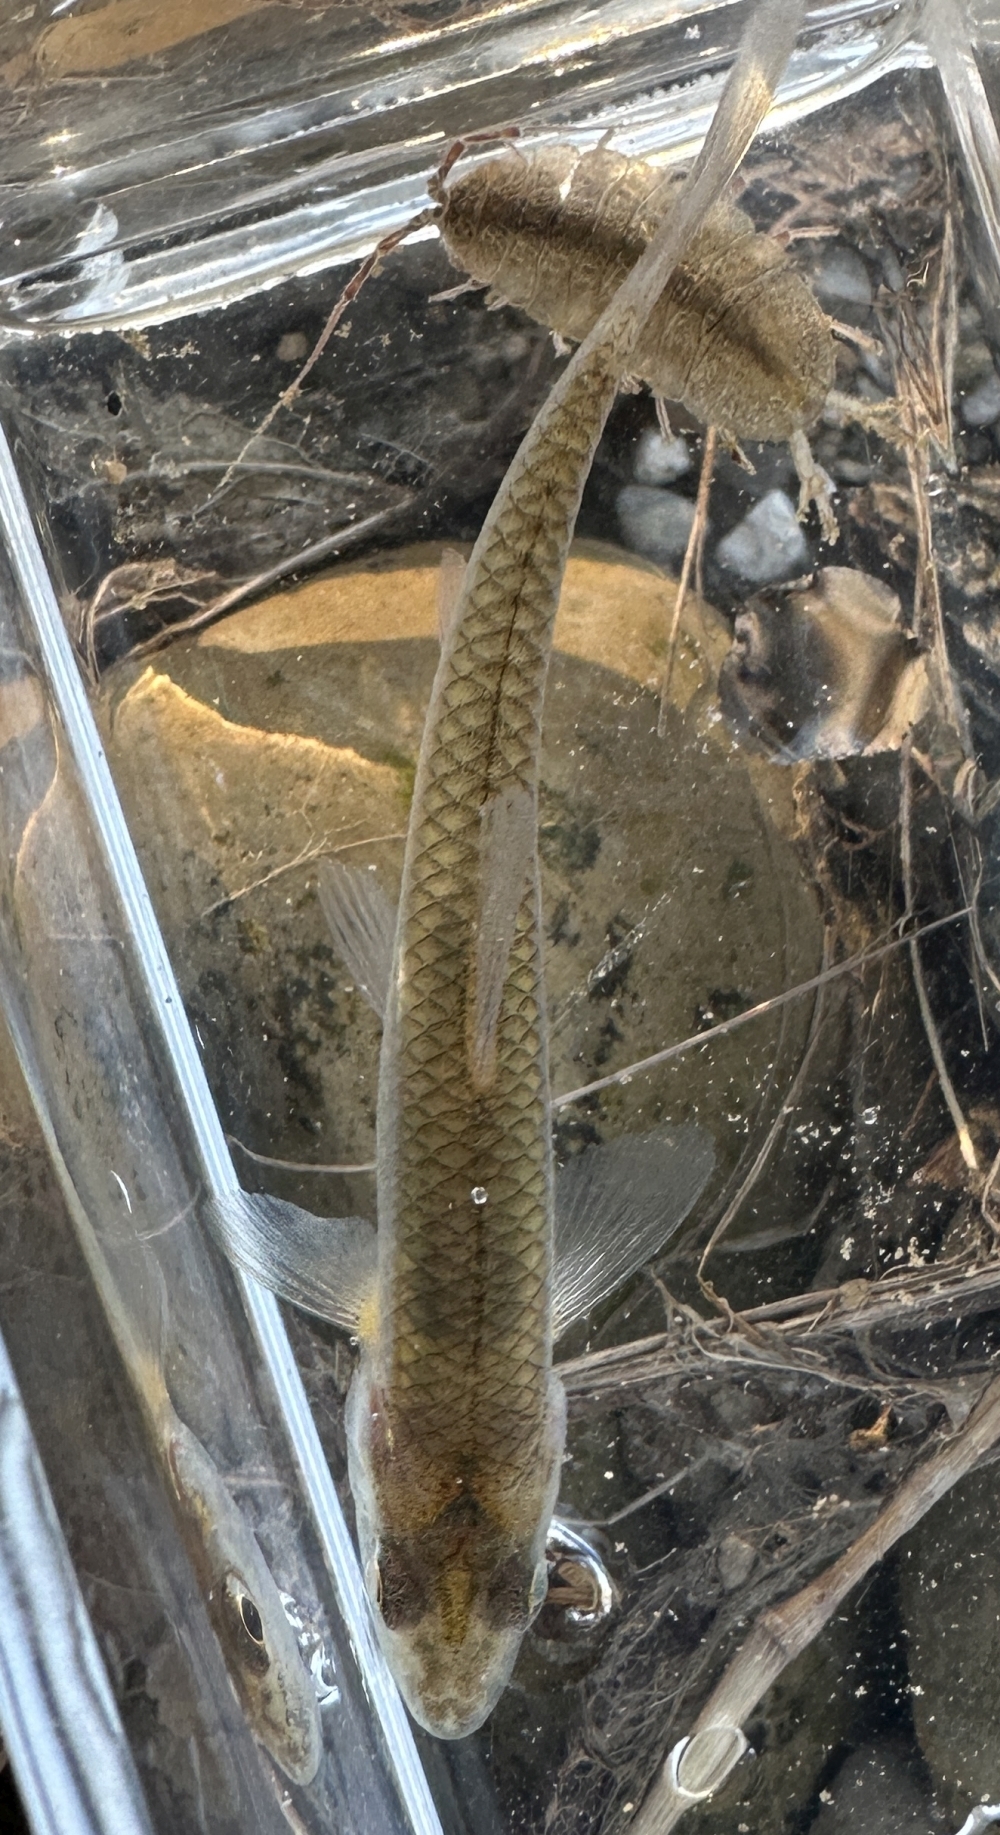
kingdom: Animalia
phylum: Chordata
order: Cypriniformes
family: Cyprinidae
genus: Notropis
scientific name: Notropis buccatus
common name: Silverjaw minnow
